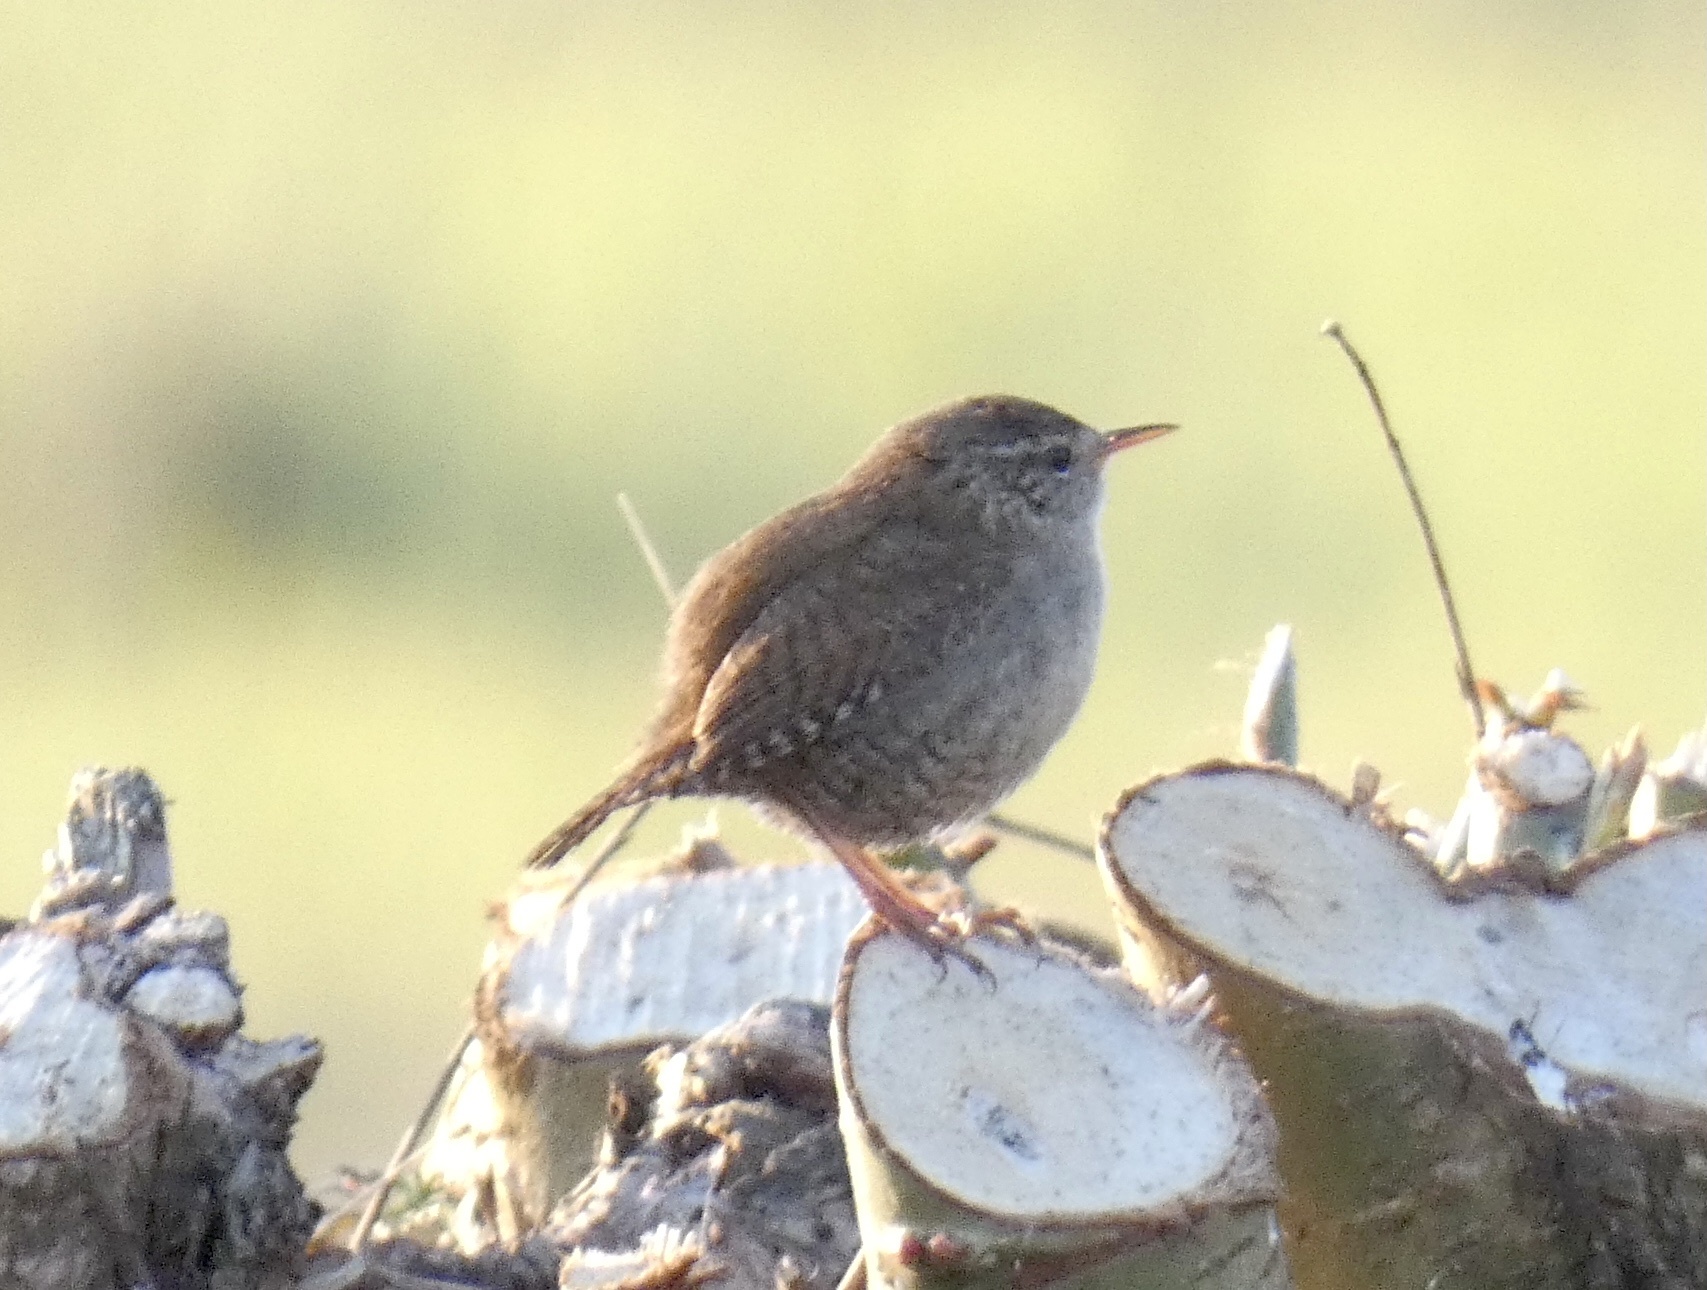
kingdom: Animalia
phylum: Chordata
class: Aves
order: Passeriformes
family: Troglodytidae
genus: Troglodytes
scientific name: Troglodytes troglodytes
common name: Eurasian wren
